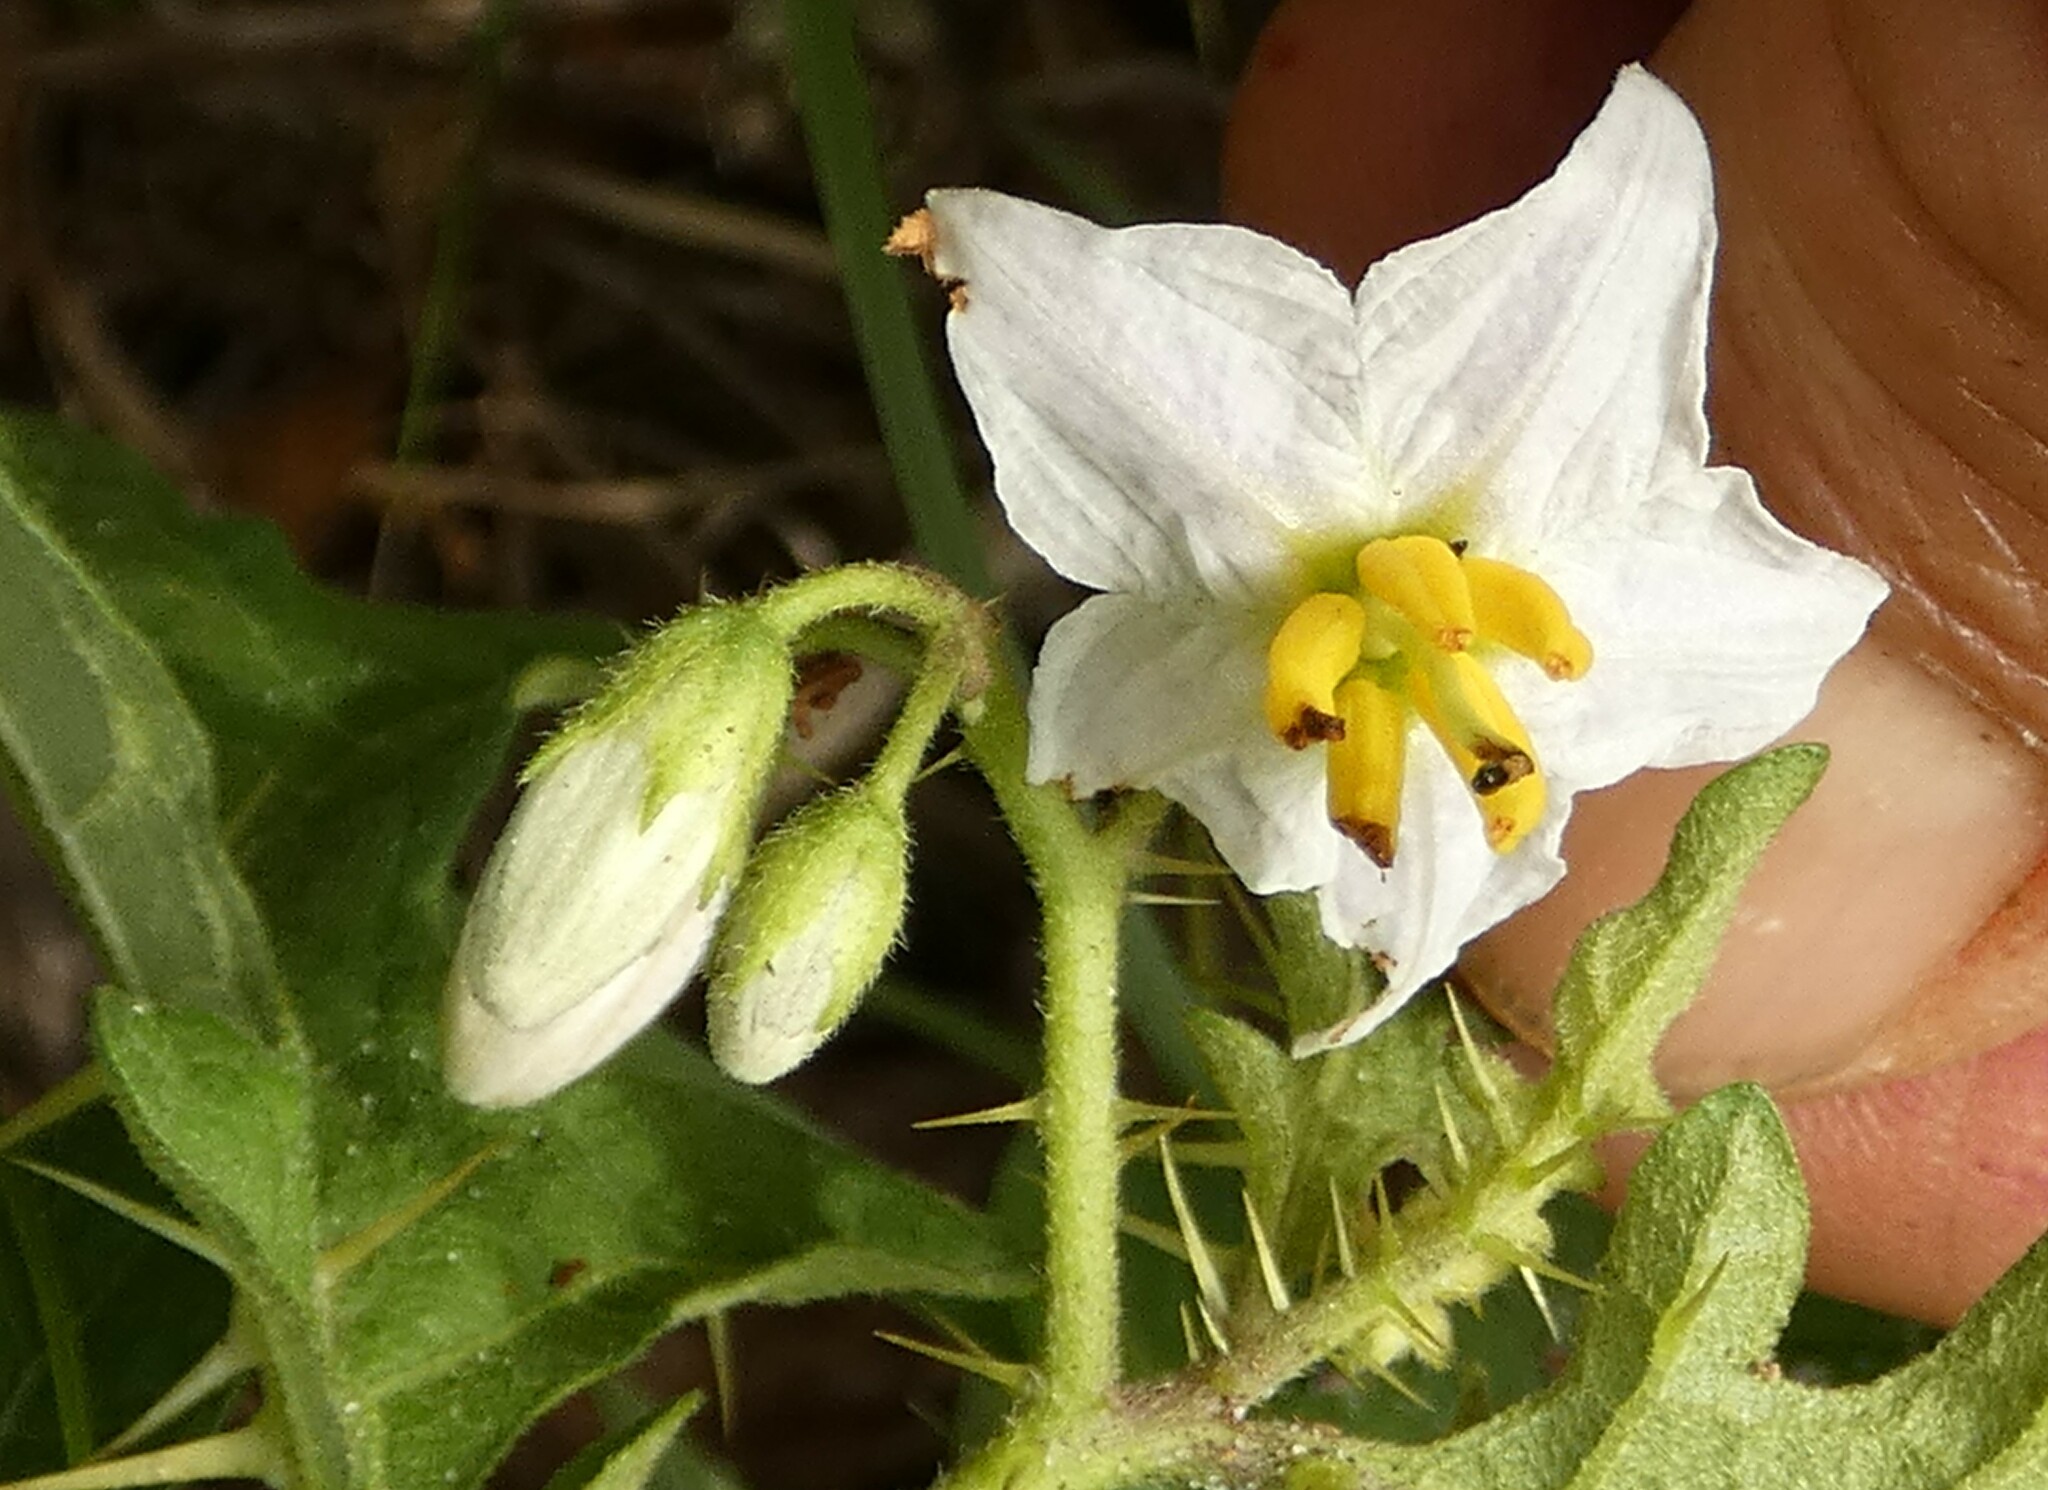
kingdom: Plantae
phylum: Tracheophyta
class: Magnoliopsida
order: Solanales
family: Solanaceae
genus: Solanum
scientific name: Solanum carolinense
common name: Horse-nettle
